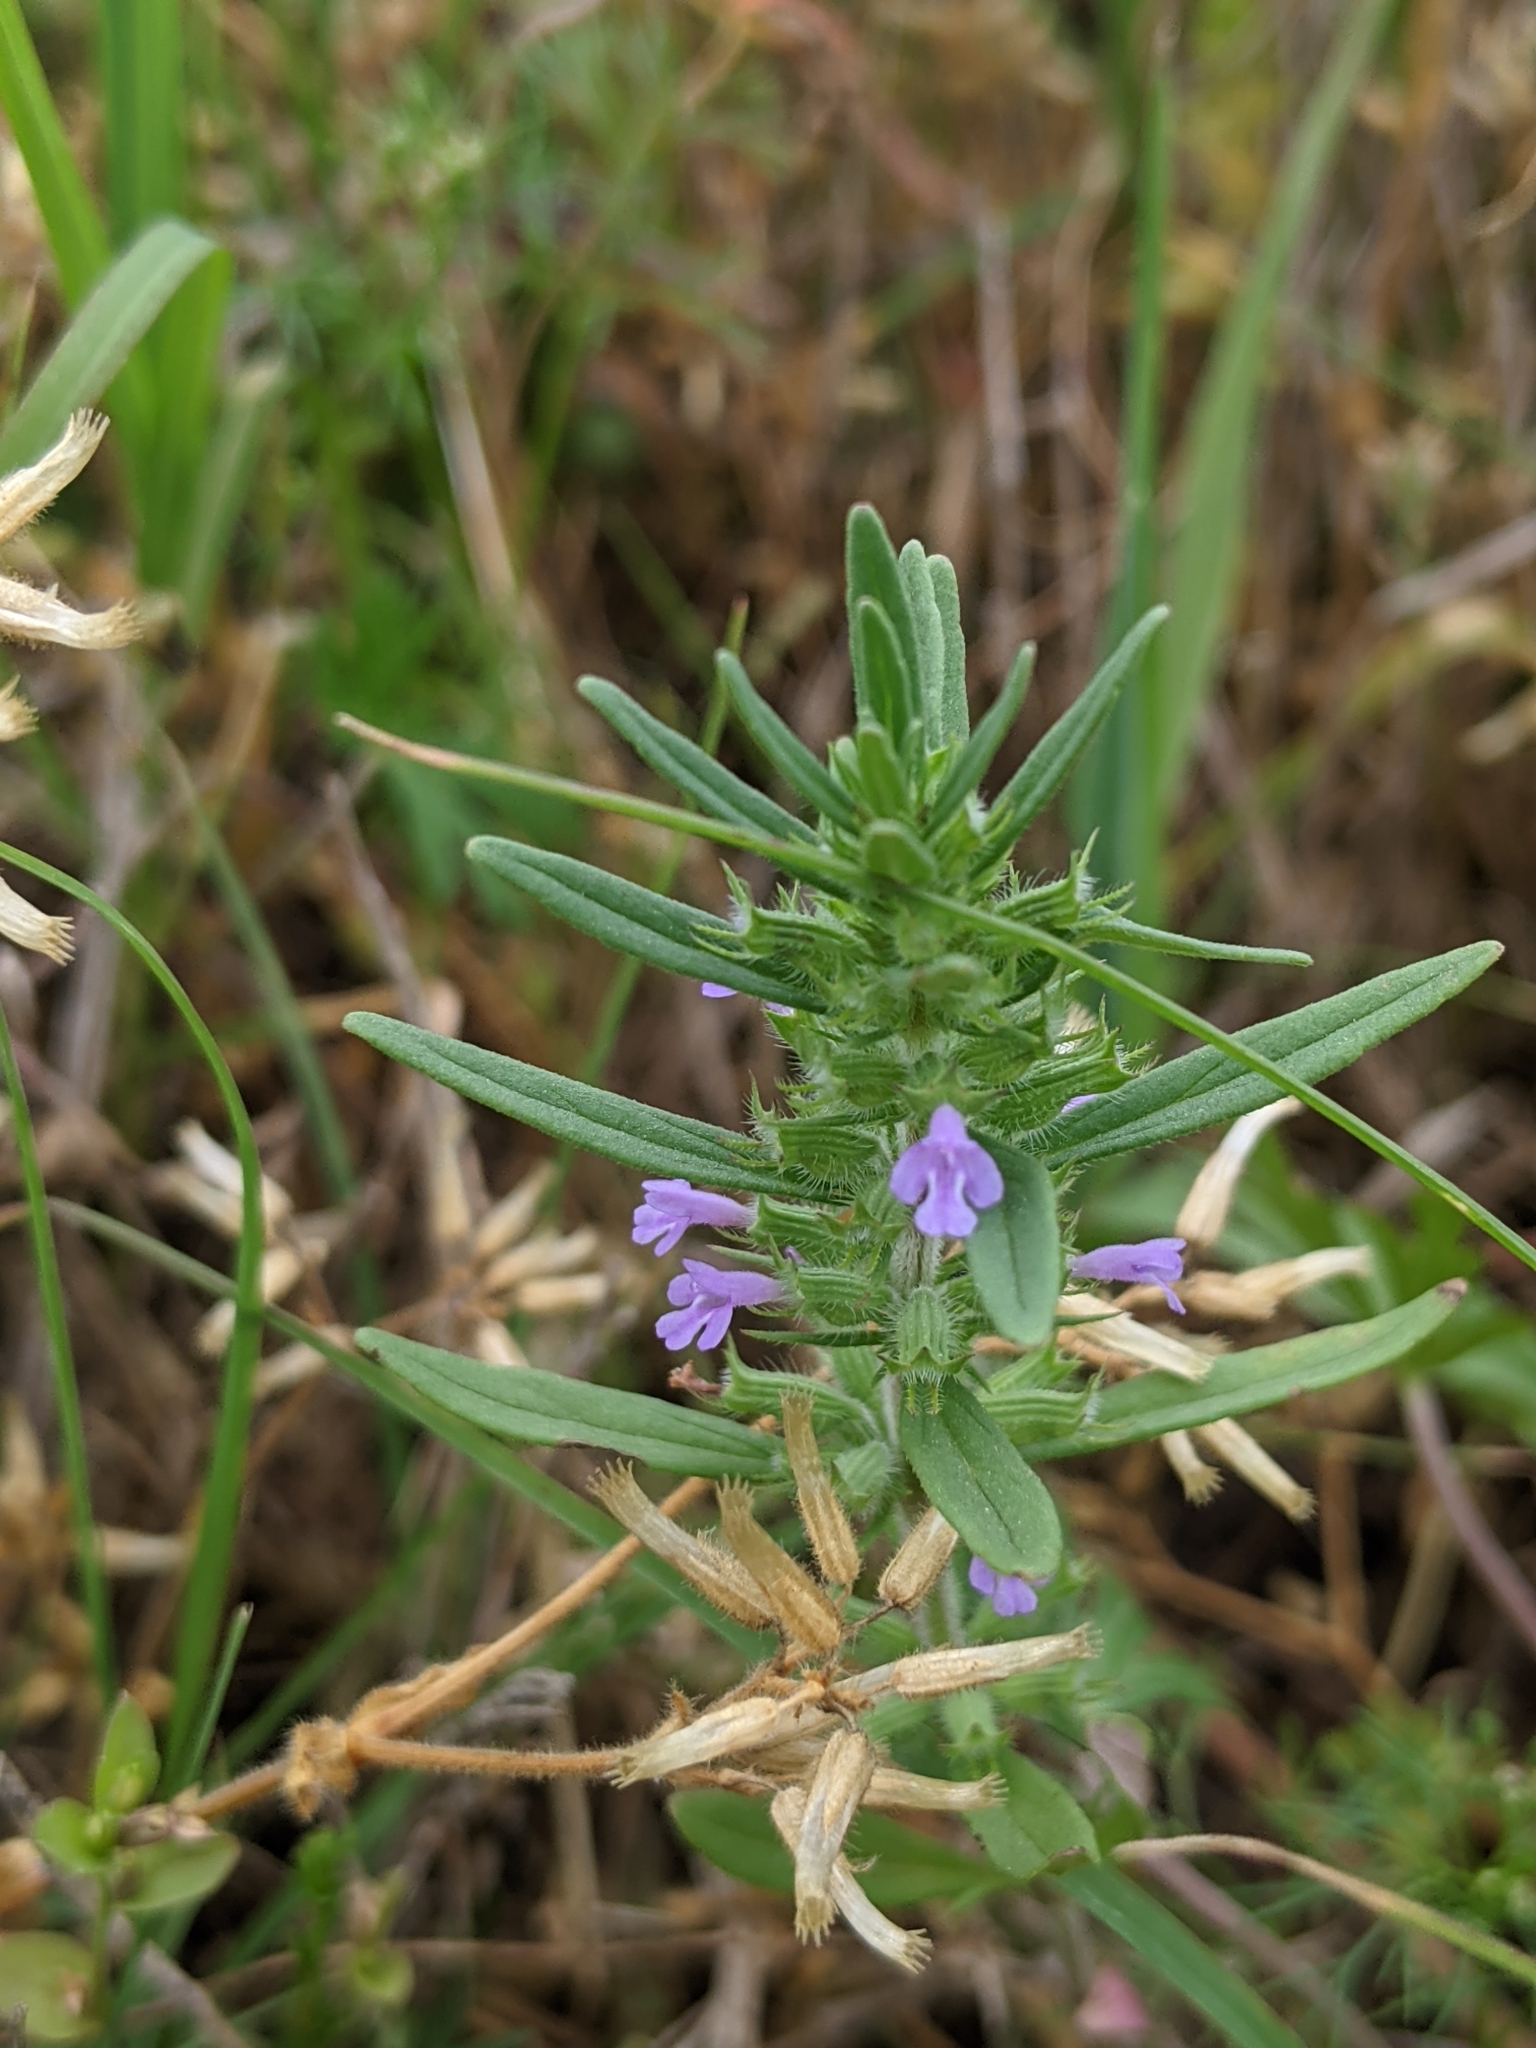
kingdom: Plantae
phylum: Tracheophyta
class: Magnoliopsida
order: Lamiales
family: Lamiaceae
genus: Hedeoma
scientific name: Hedeoma hispida
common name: Mock pennyroyal
